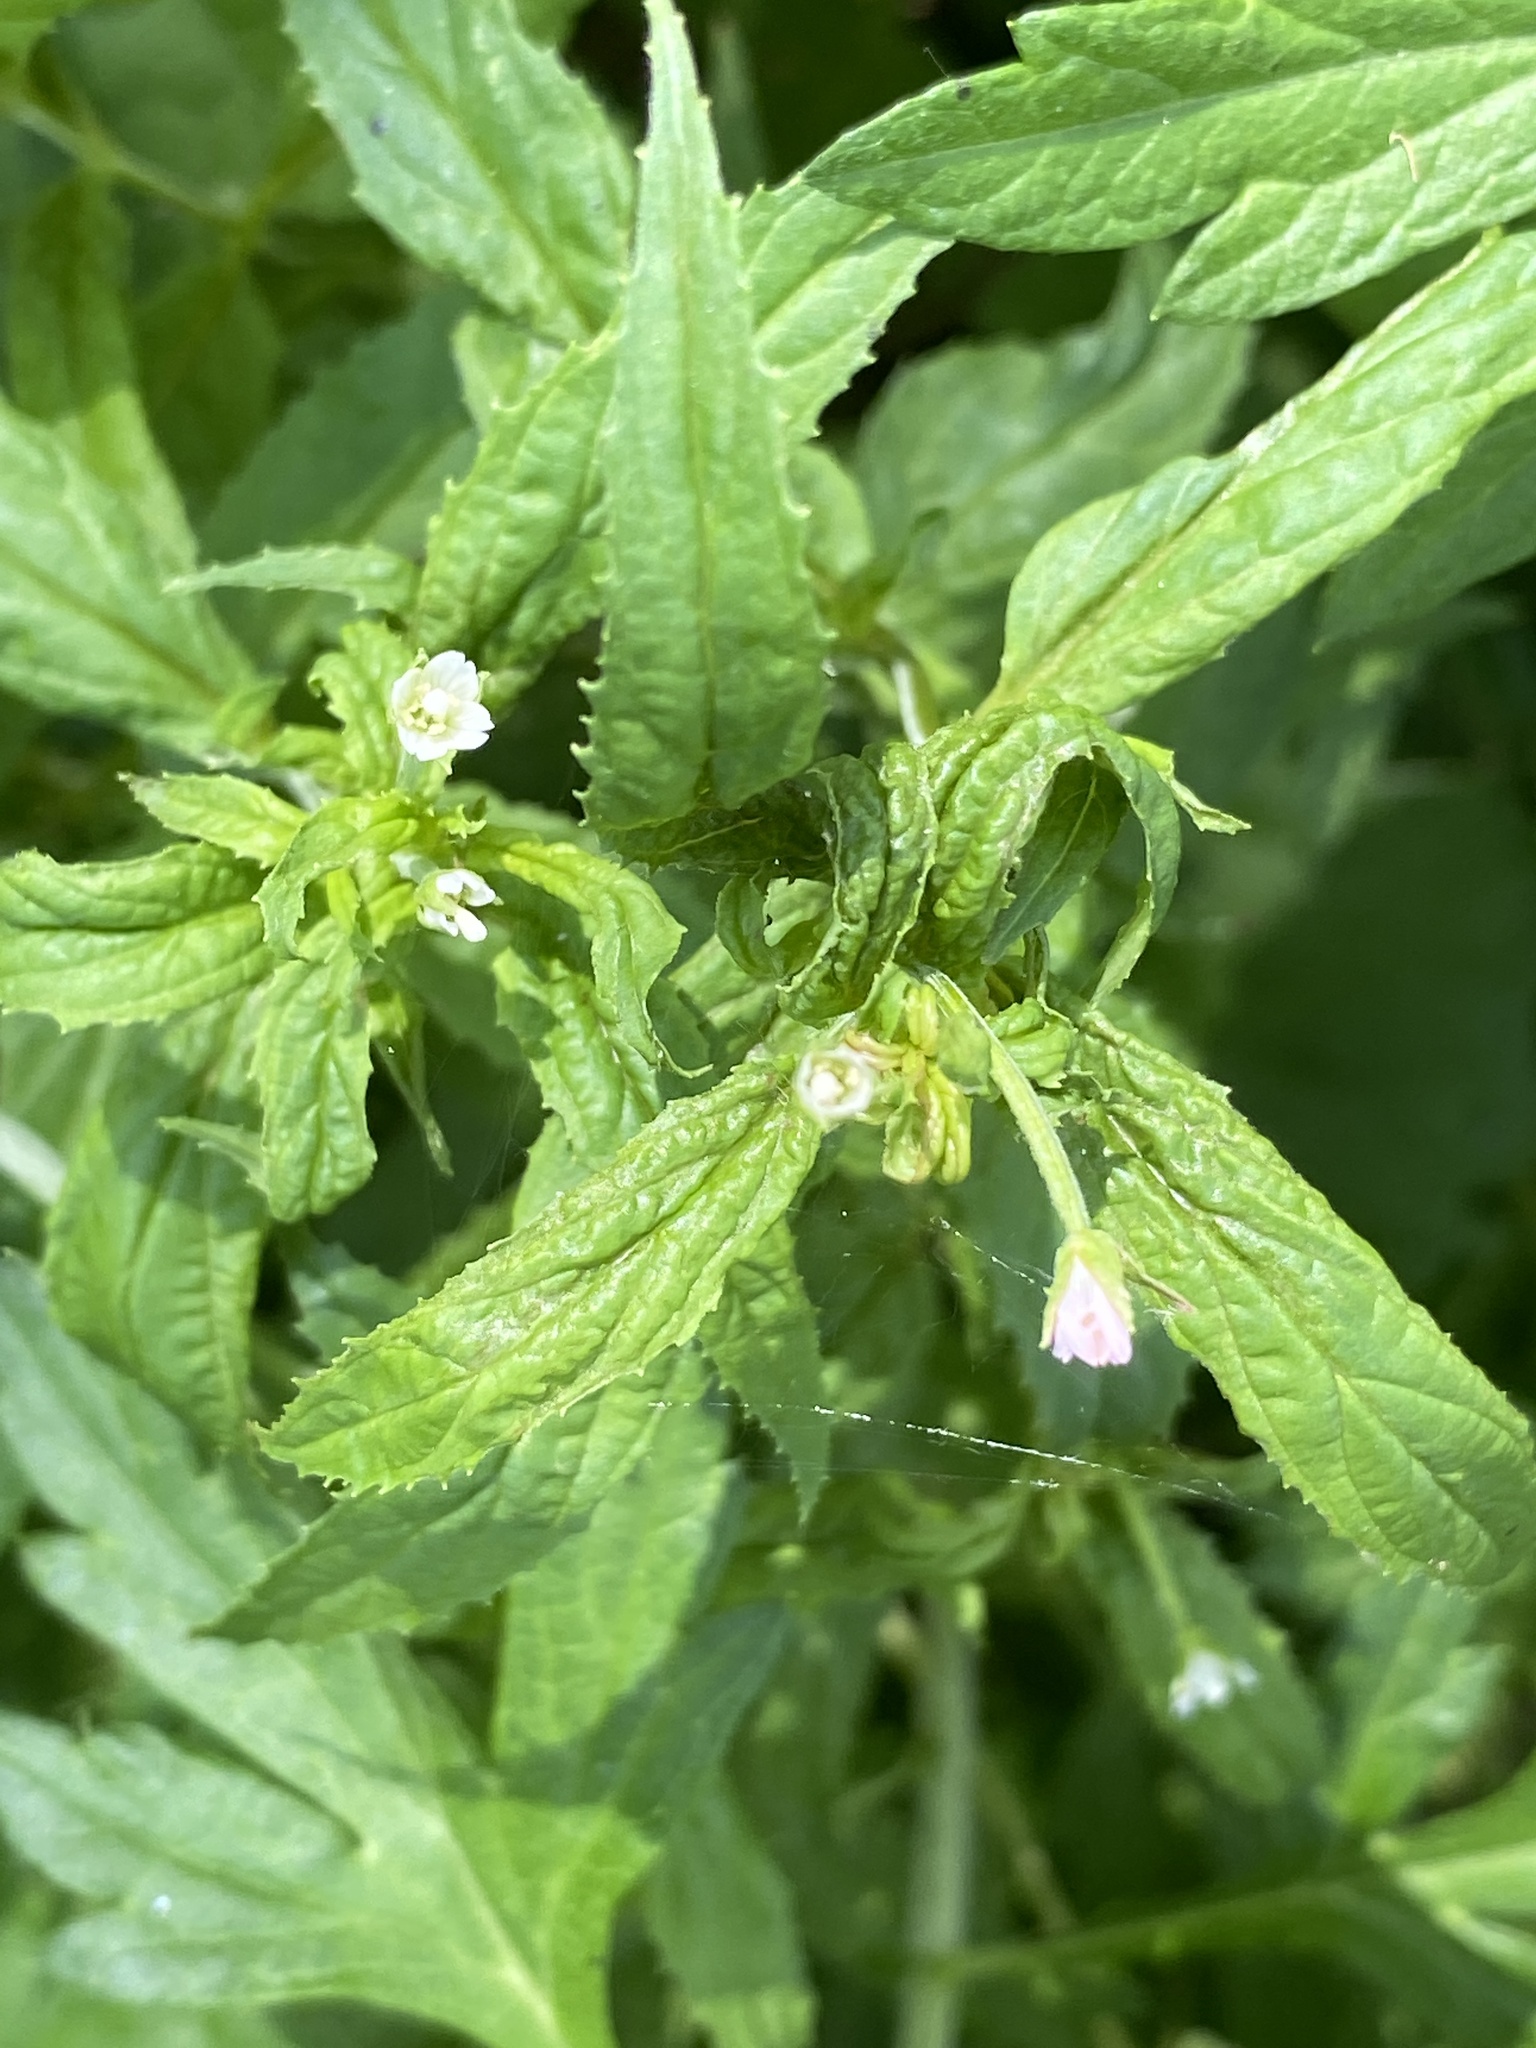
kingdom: Plantae
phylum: Tracheophyta
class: Magnoliopsida
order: Myrtales
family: Onagraceae
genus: Epilobium
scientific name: Epilobium coloratum
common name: Bronze willowherb
